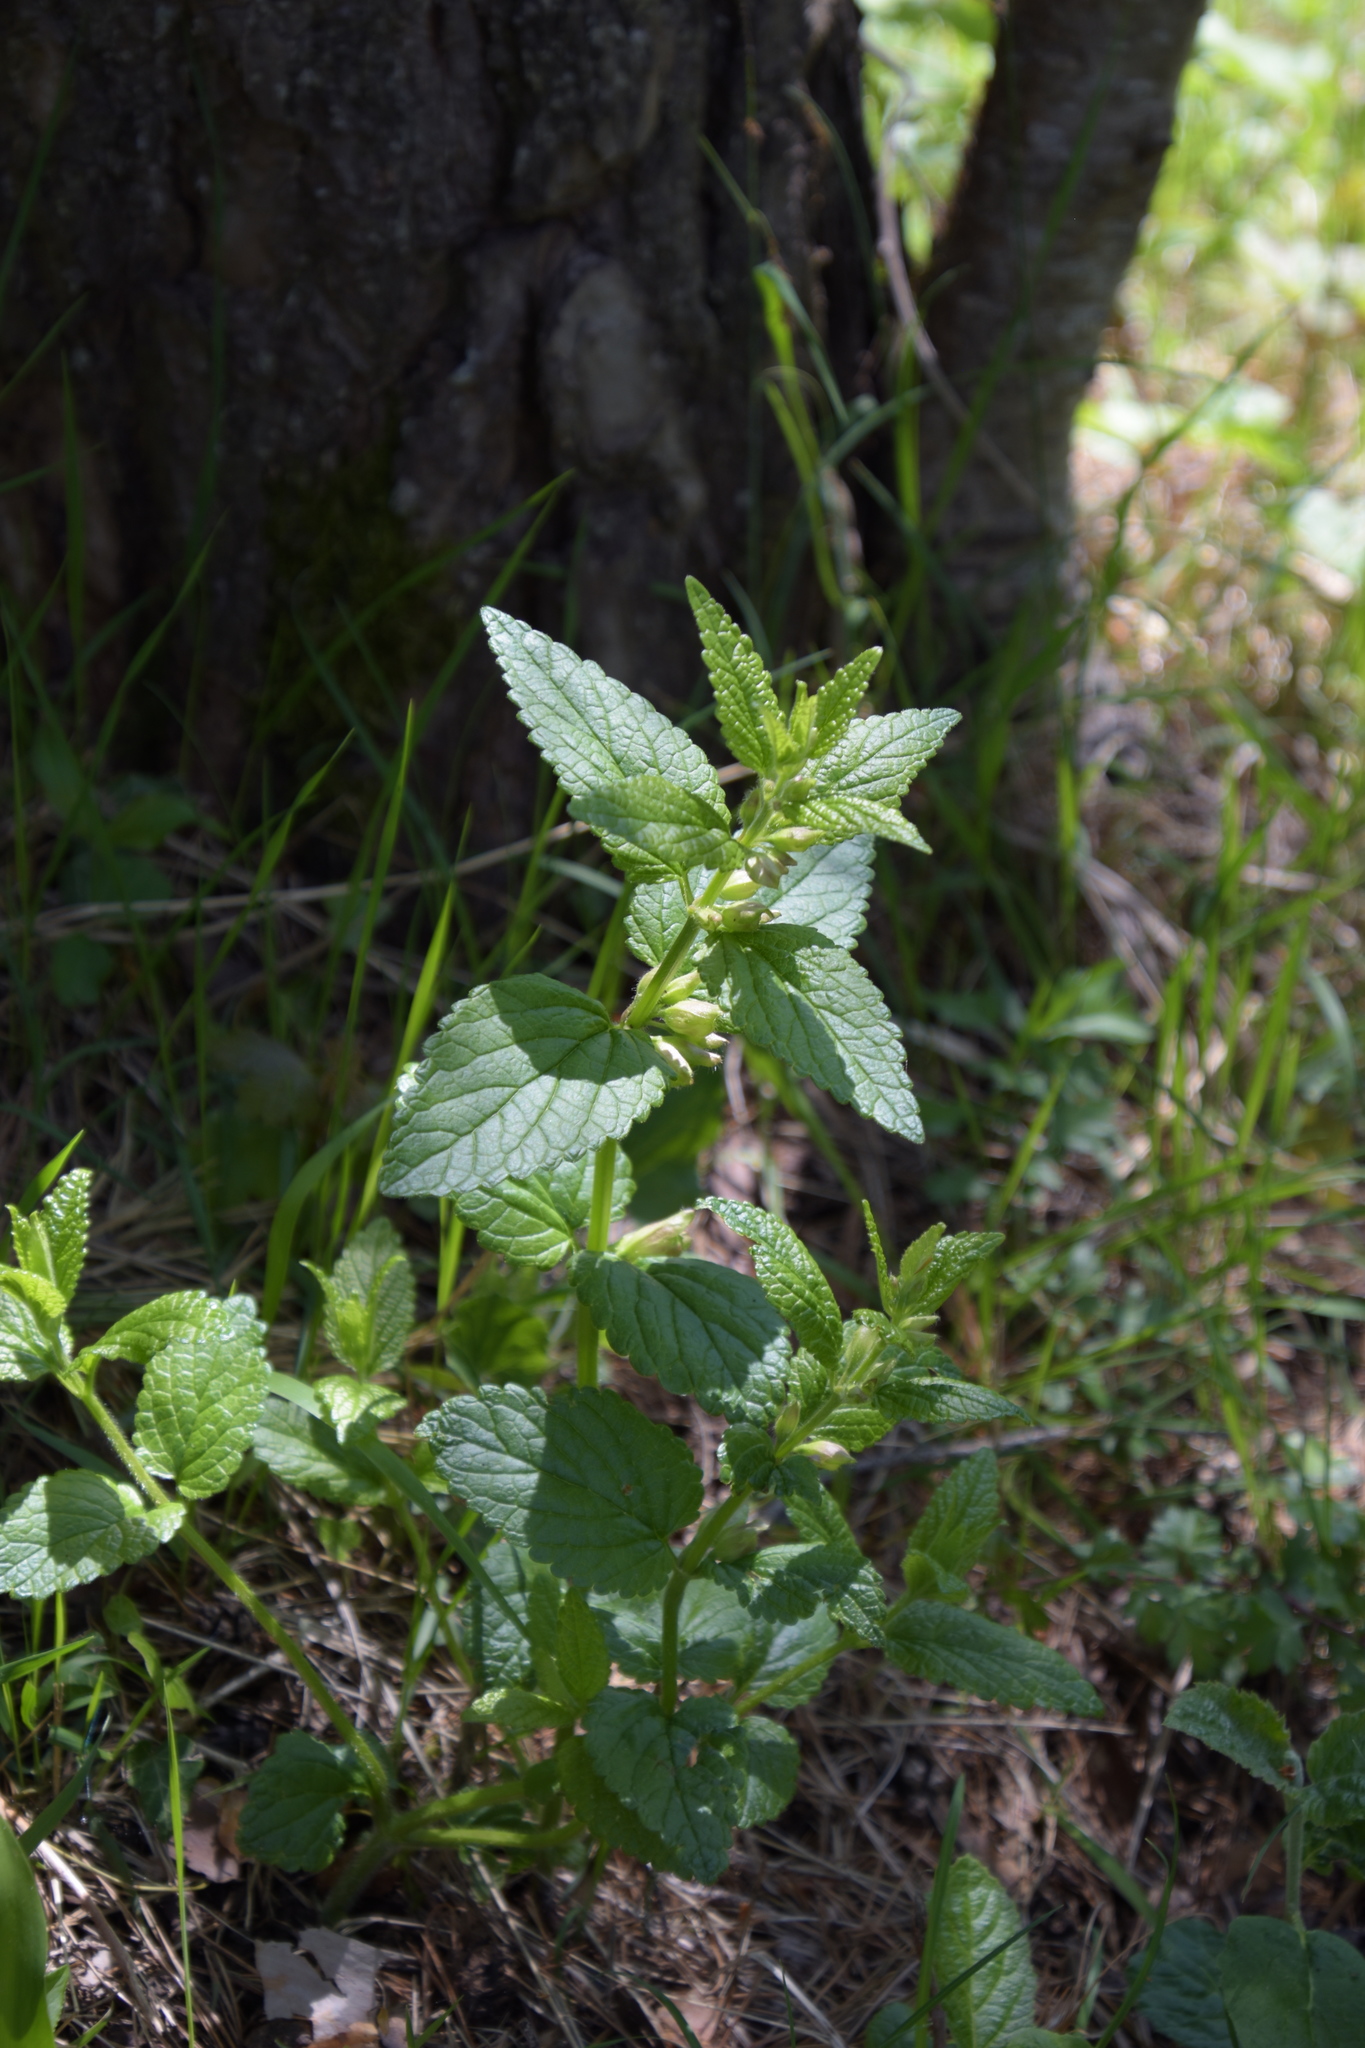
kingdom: Plantae
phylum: Tracheophyta
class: Magnoliopsida
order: Lamiales
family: Lamiaceae
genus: Melittis
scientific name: Melittis melissophyllum
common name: Bastard balm
